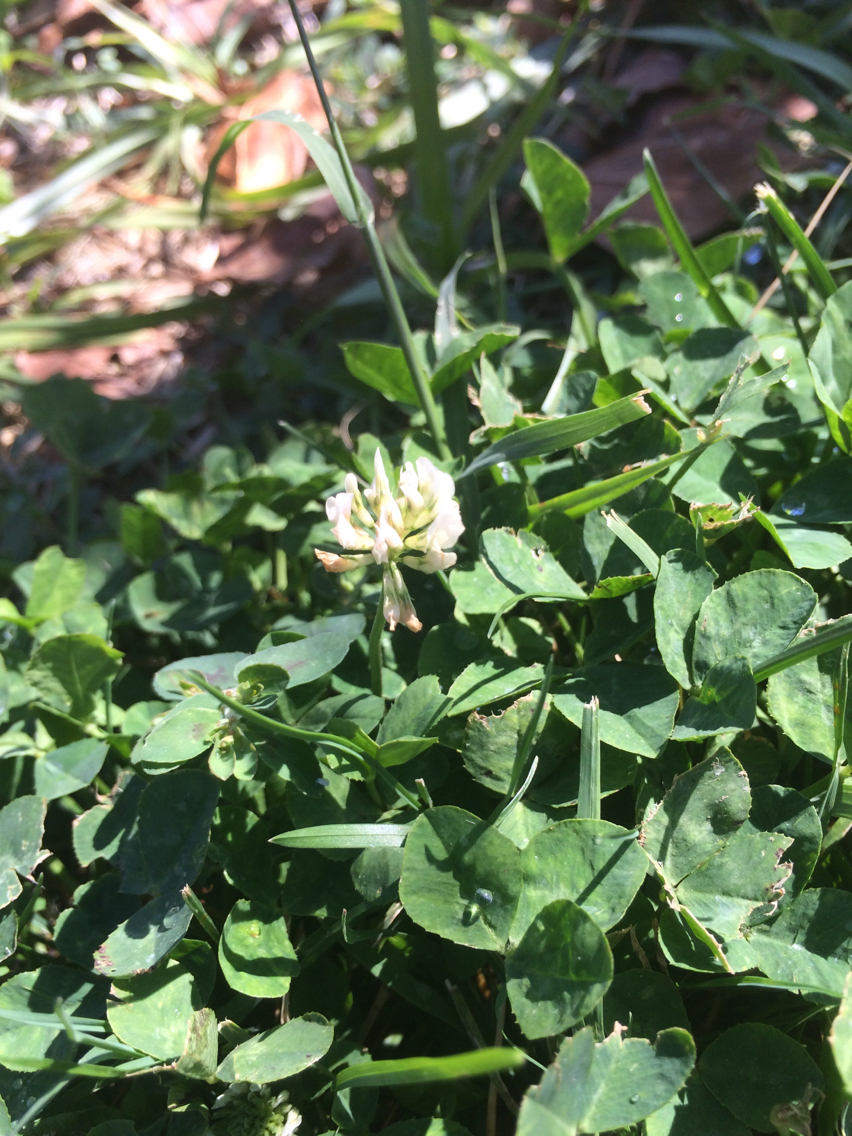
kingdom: Plantae
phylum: Tracheophyta
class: Magnoliopsida
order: Fabales
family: Fabaceae
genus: Trifolium
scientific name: Trifolium repens
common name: White clover
